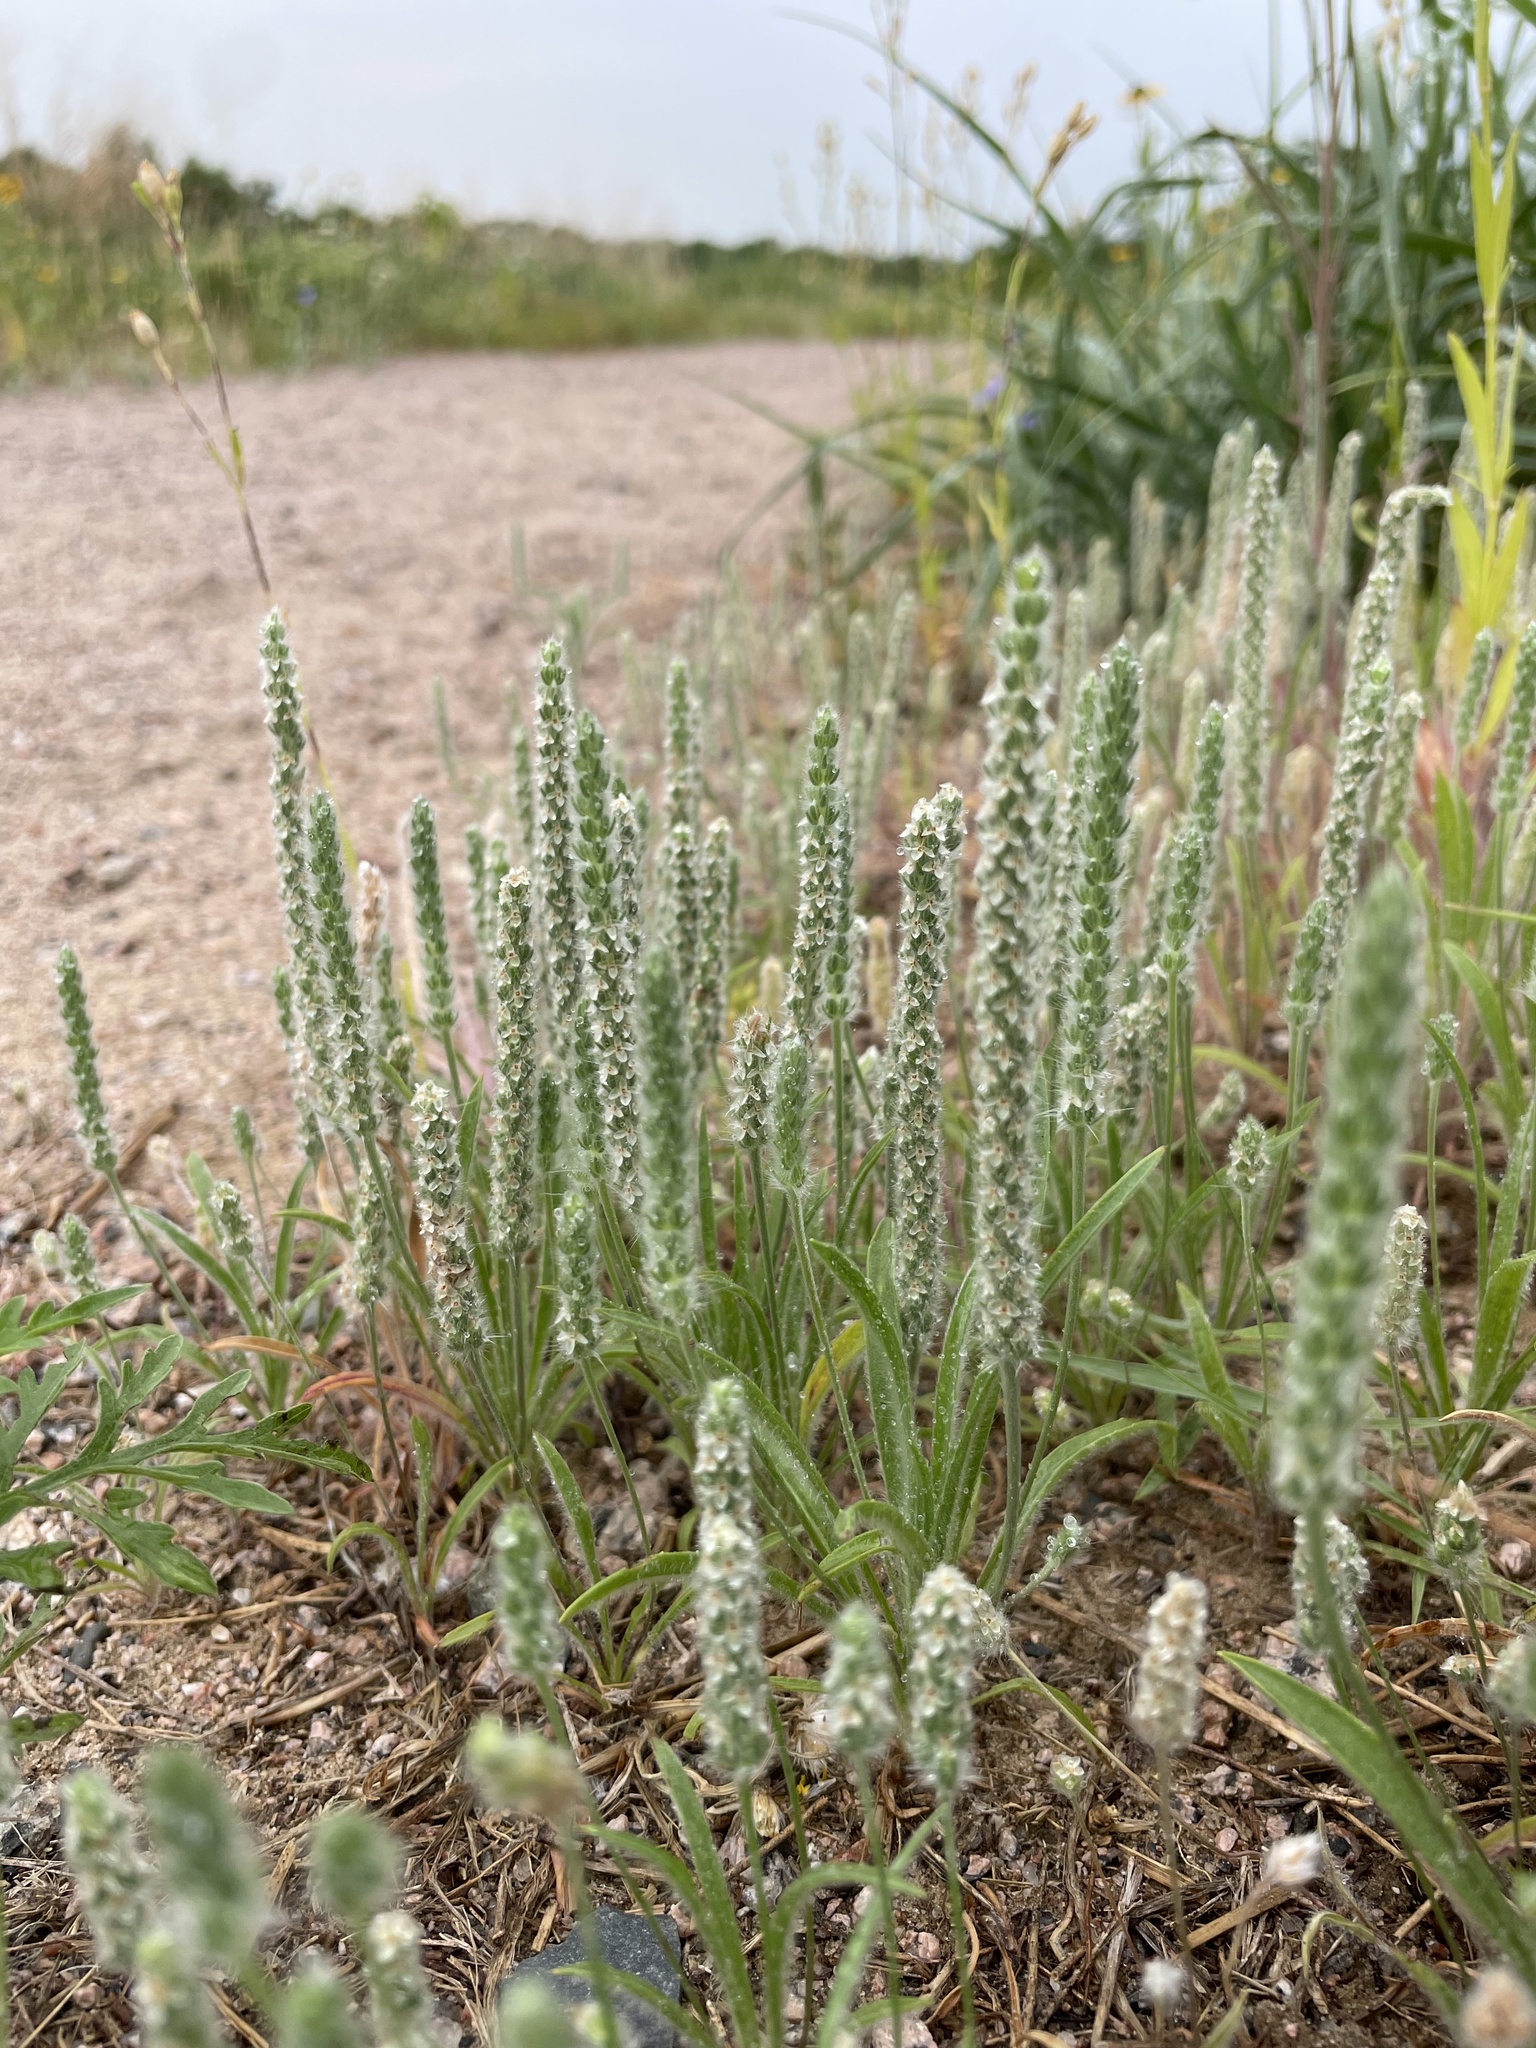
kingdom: Plantae
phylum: Tracheophyta
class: Magnoliopsida
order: Lamiales
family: Plantaginaceae
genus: Plantago
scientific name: Plantago patagonica
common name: Patagonia indian-wheat
